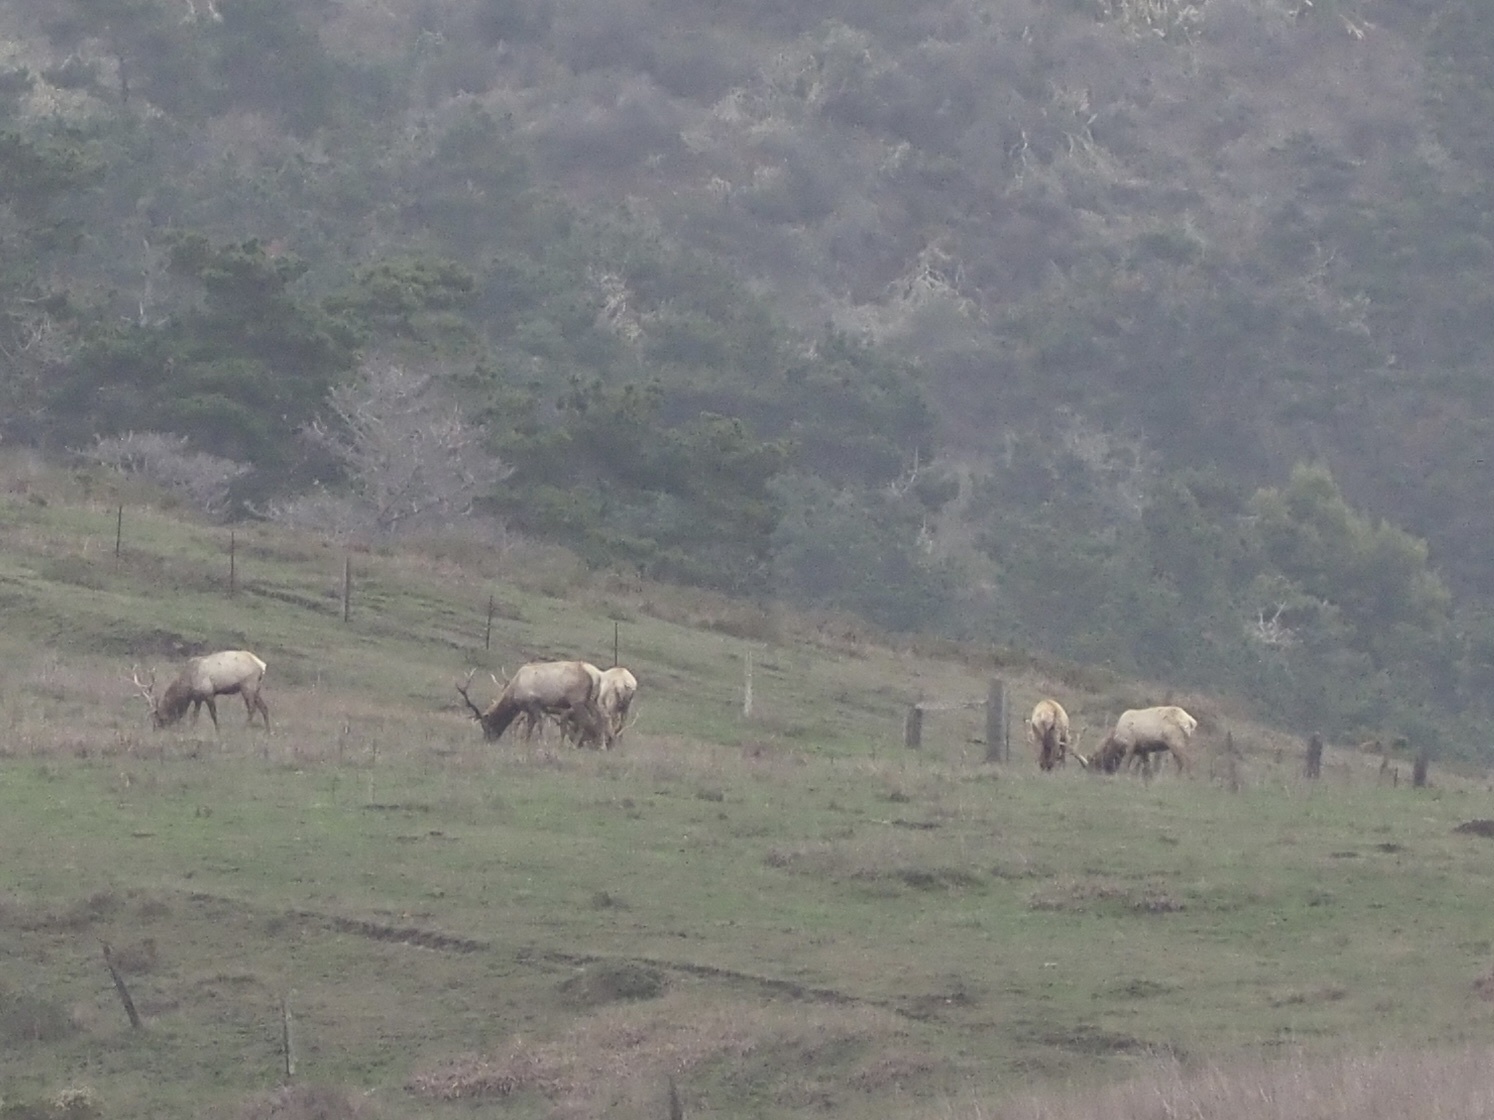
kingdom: Animalia
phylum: Chordata
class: Mammalia
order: Artiodactyla
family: Cervidae
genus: Cervus
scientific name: Cervus elaphus
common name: Red deer
